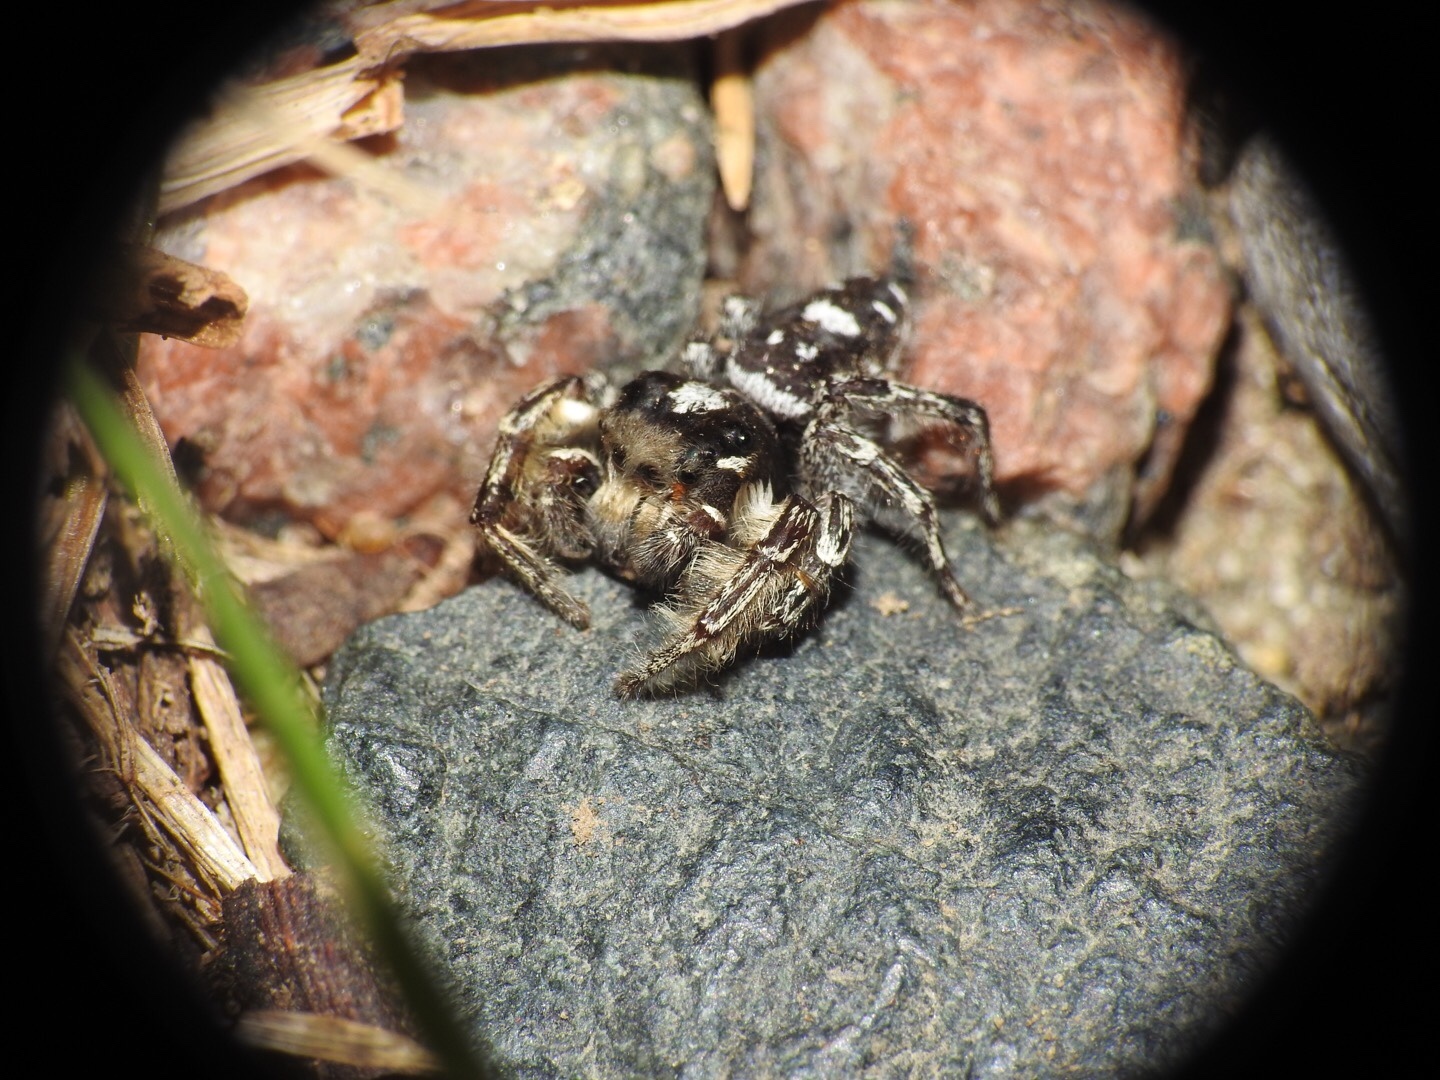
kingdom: Animalia
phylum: Arthropoda
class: Arachnida
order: Araneae
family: Salticidae
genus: Phidippus
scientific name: Phidippus putnami
